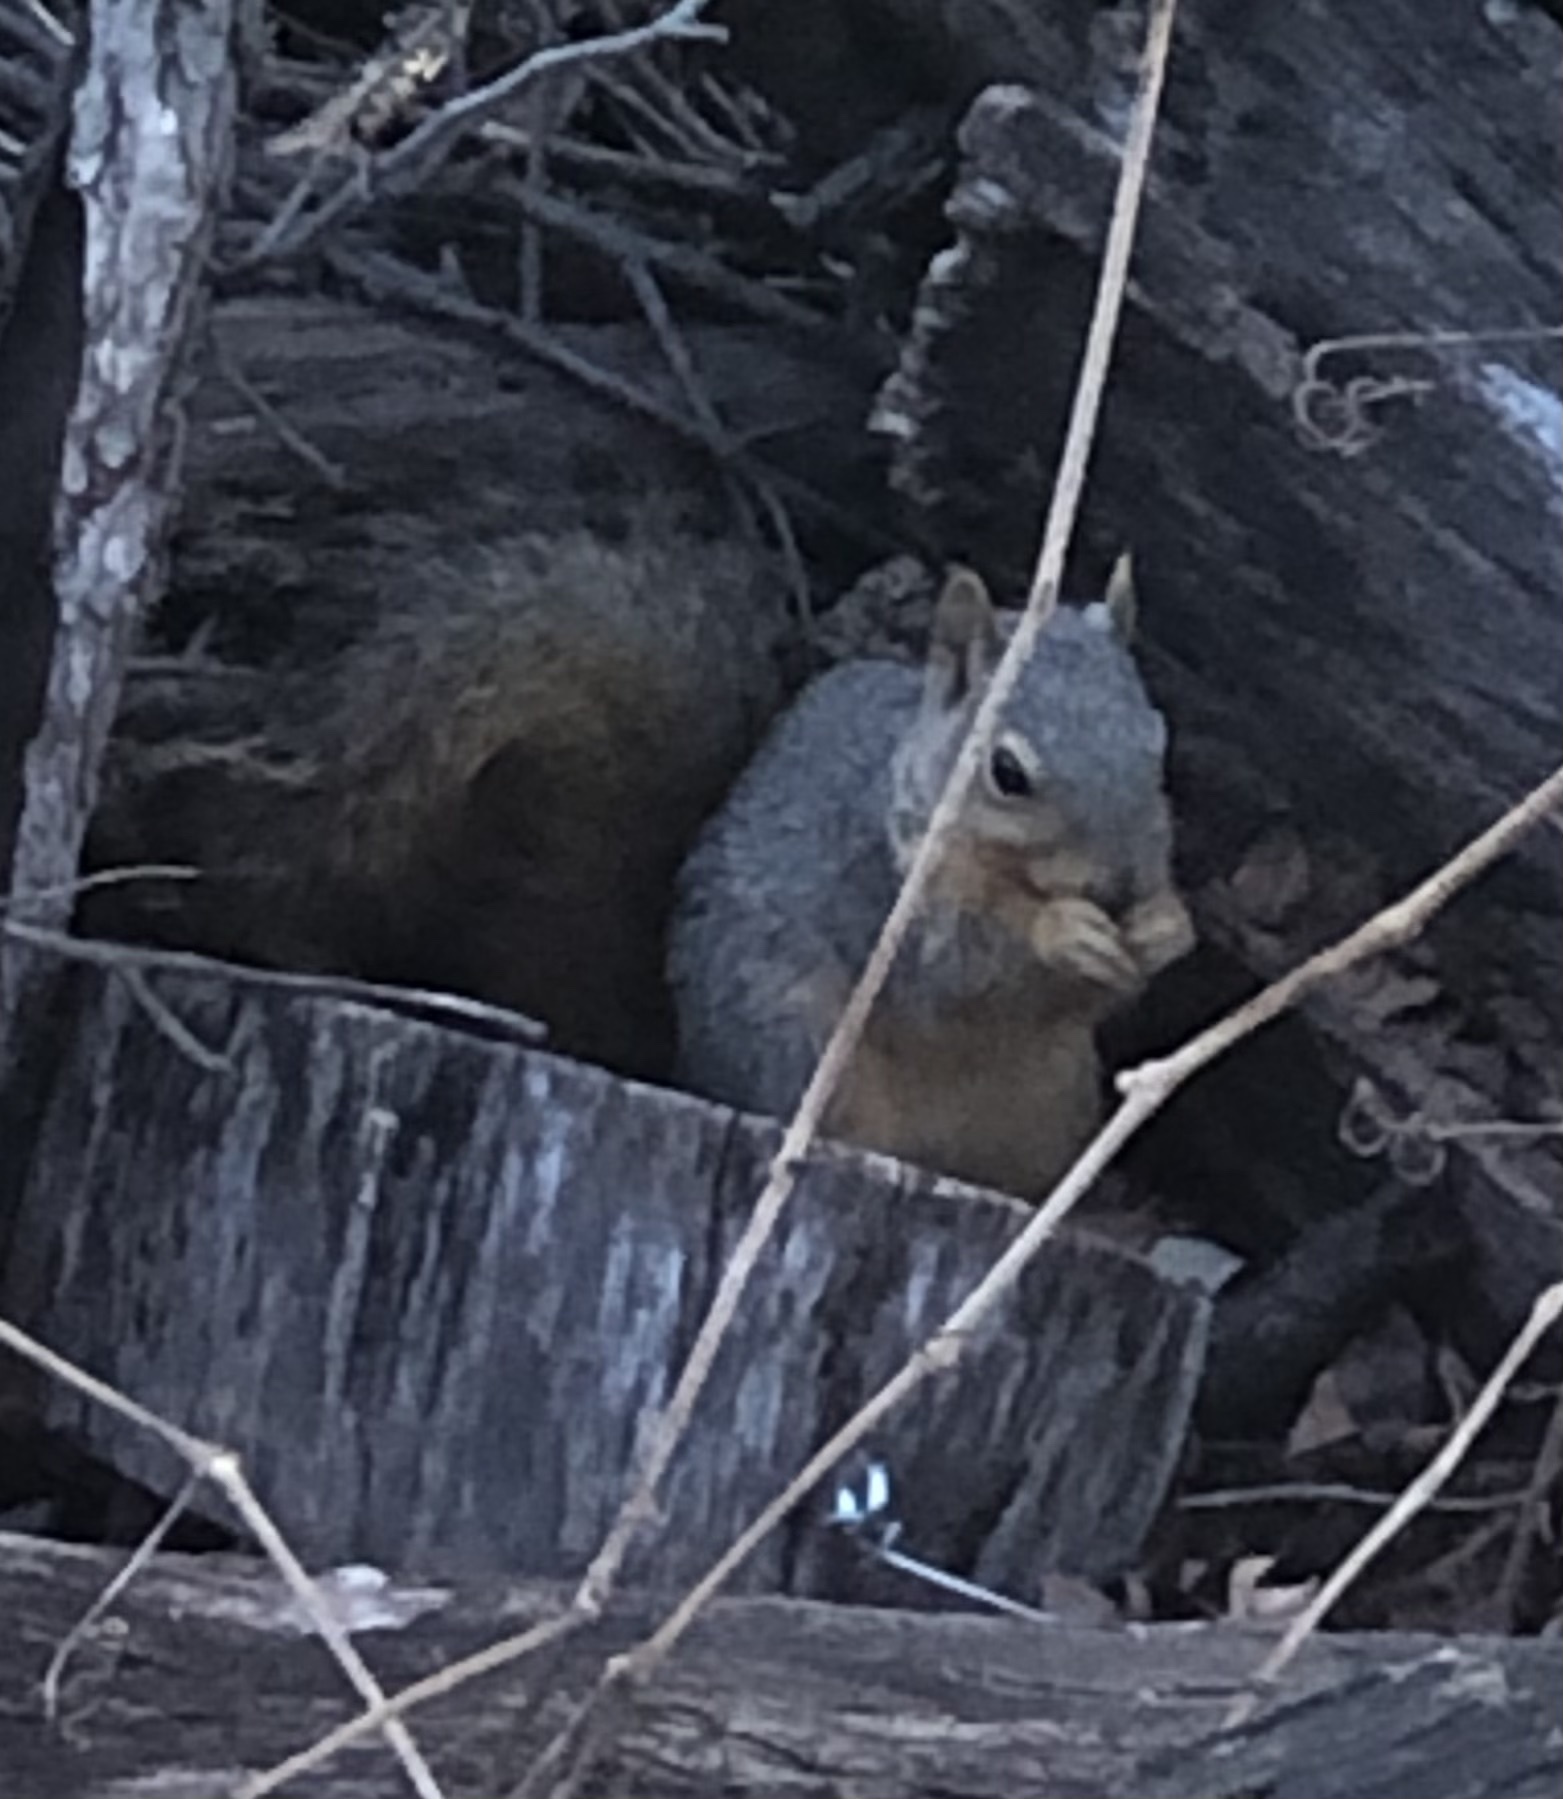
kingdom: Animalia
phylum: Chordata
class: Mammalia
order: Rodentia
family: Sciuridae
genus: Sciurus
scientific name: Sciurus niger
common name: Fox squirrel
